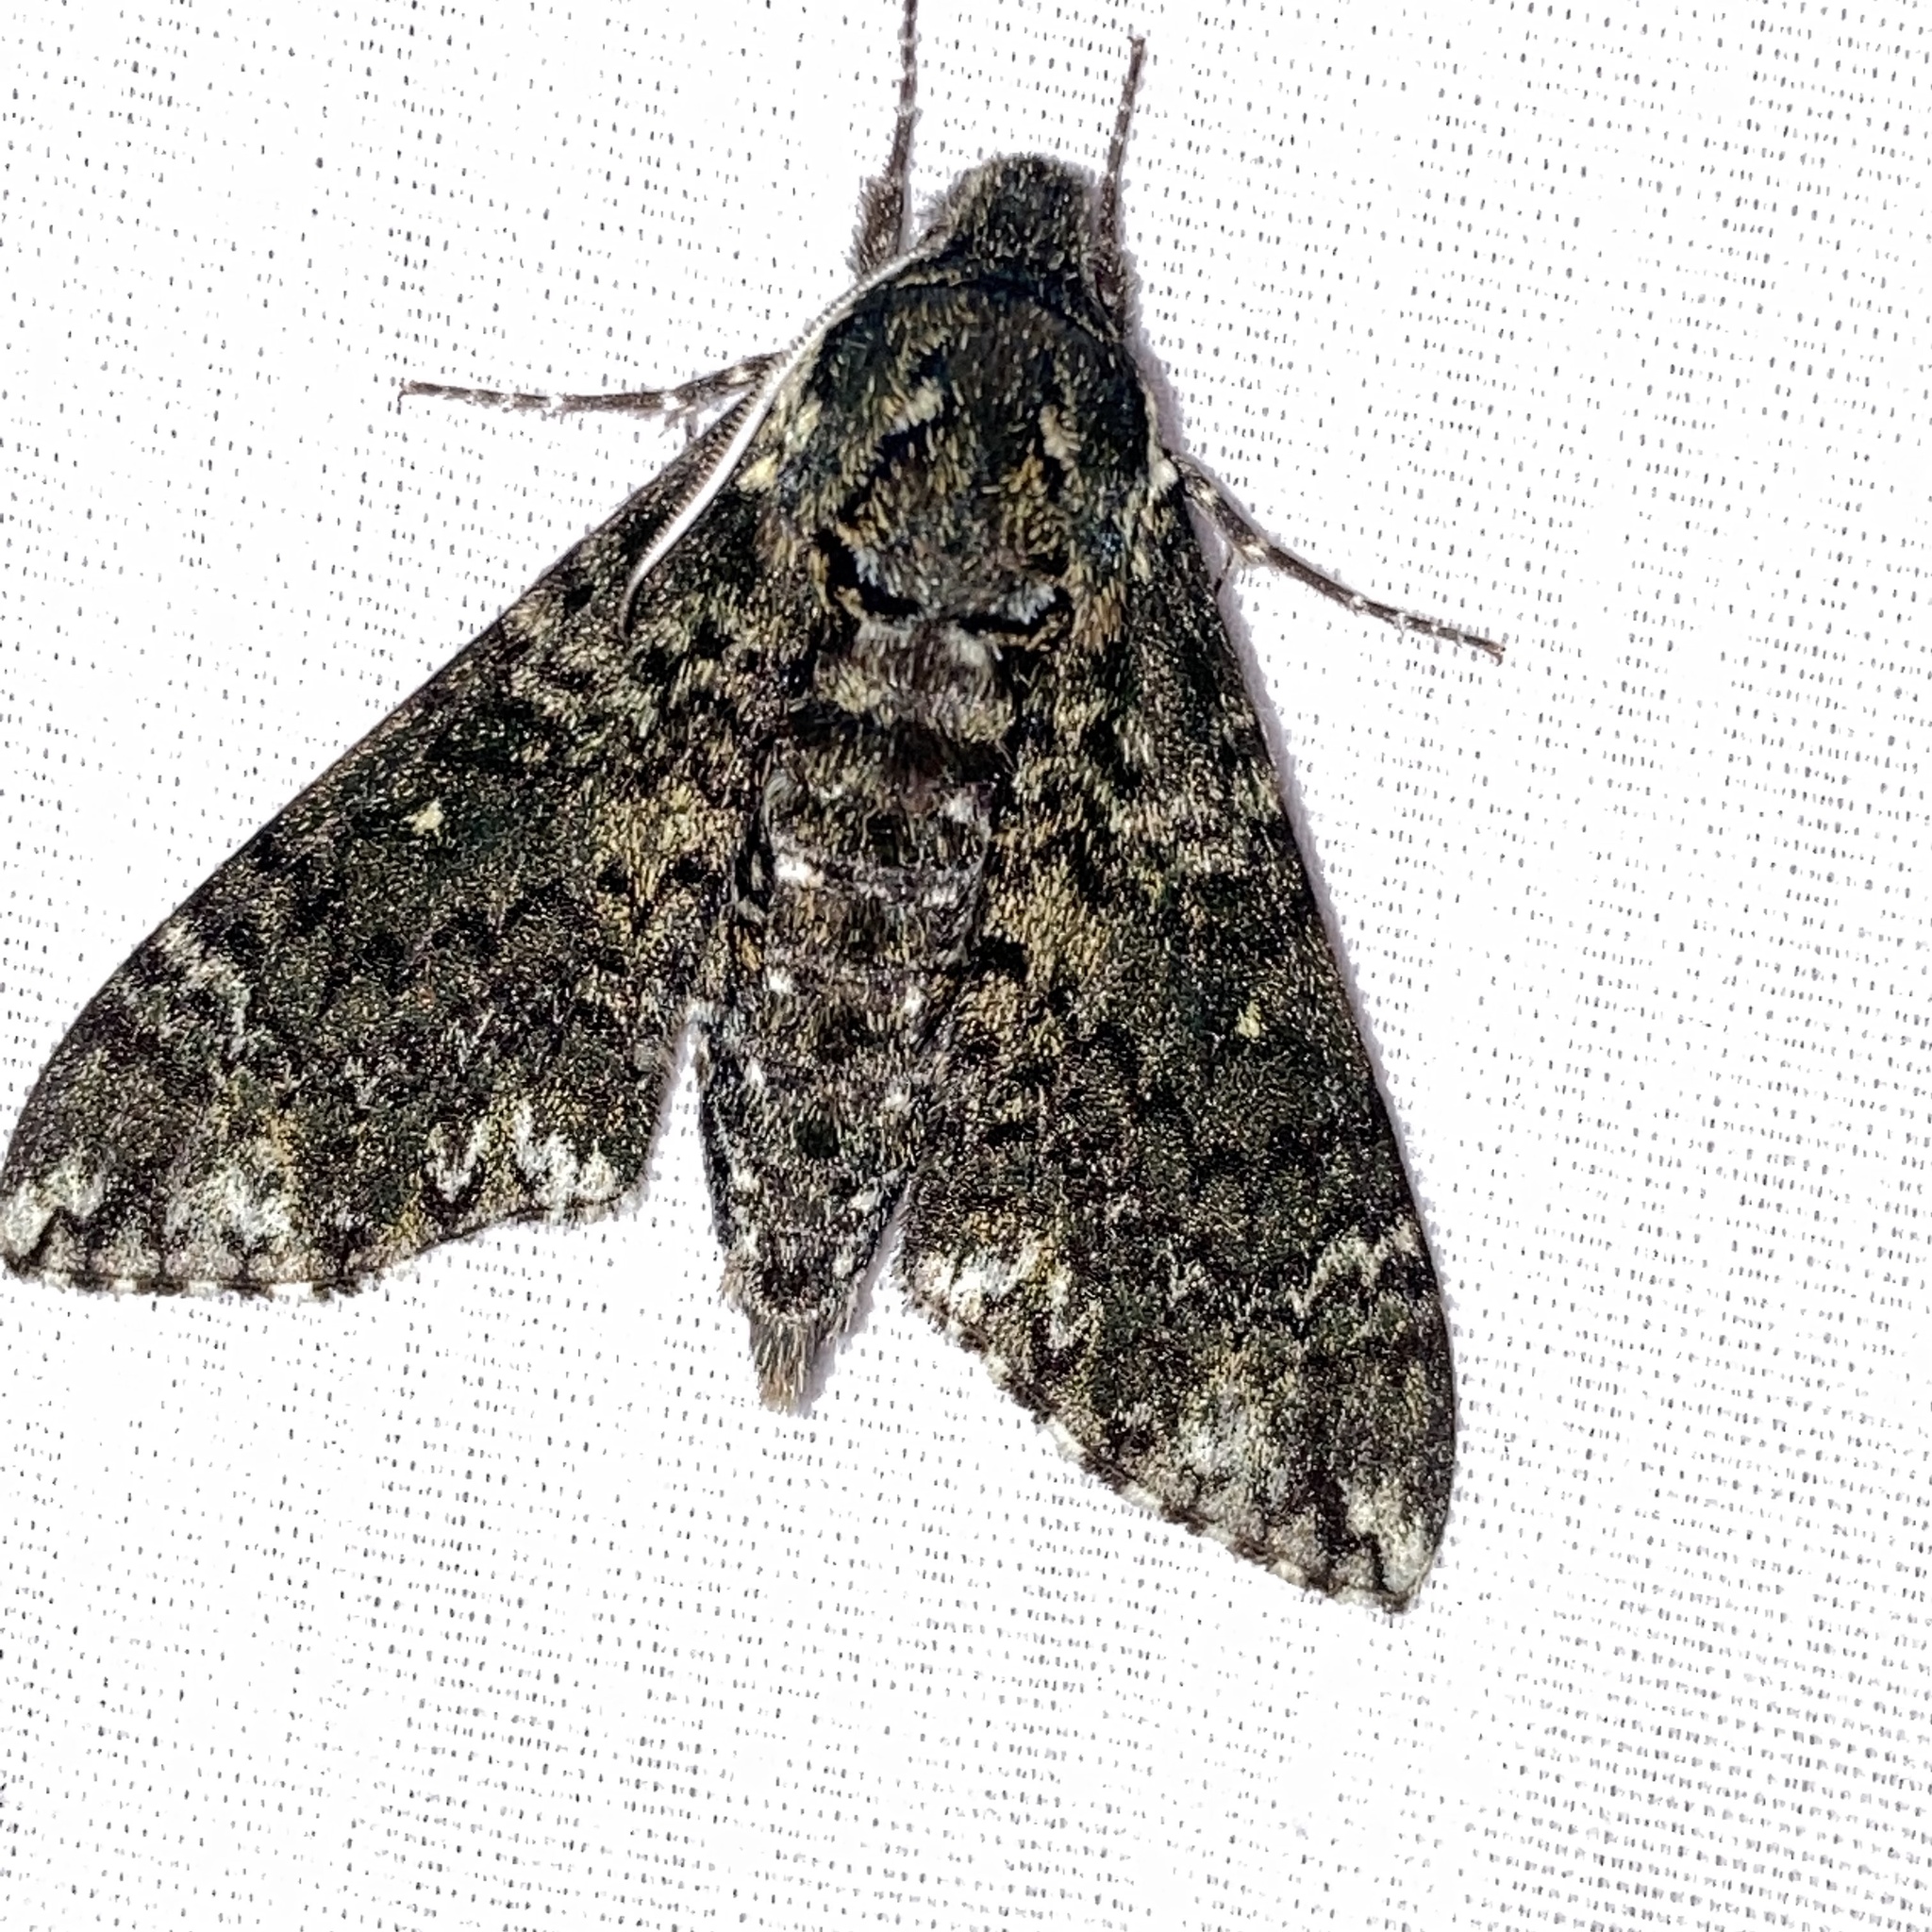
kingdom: Animalia
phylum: Arthropoda
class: Insecta
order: Lepidoptera
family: Sphingidae
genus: Dolba
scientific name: Dolba hyloeus
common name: Pawpaw sphinx
